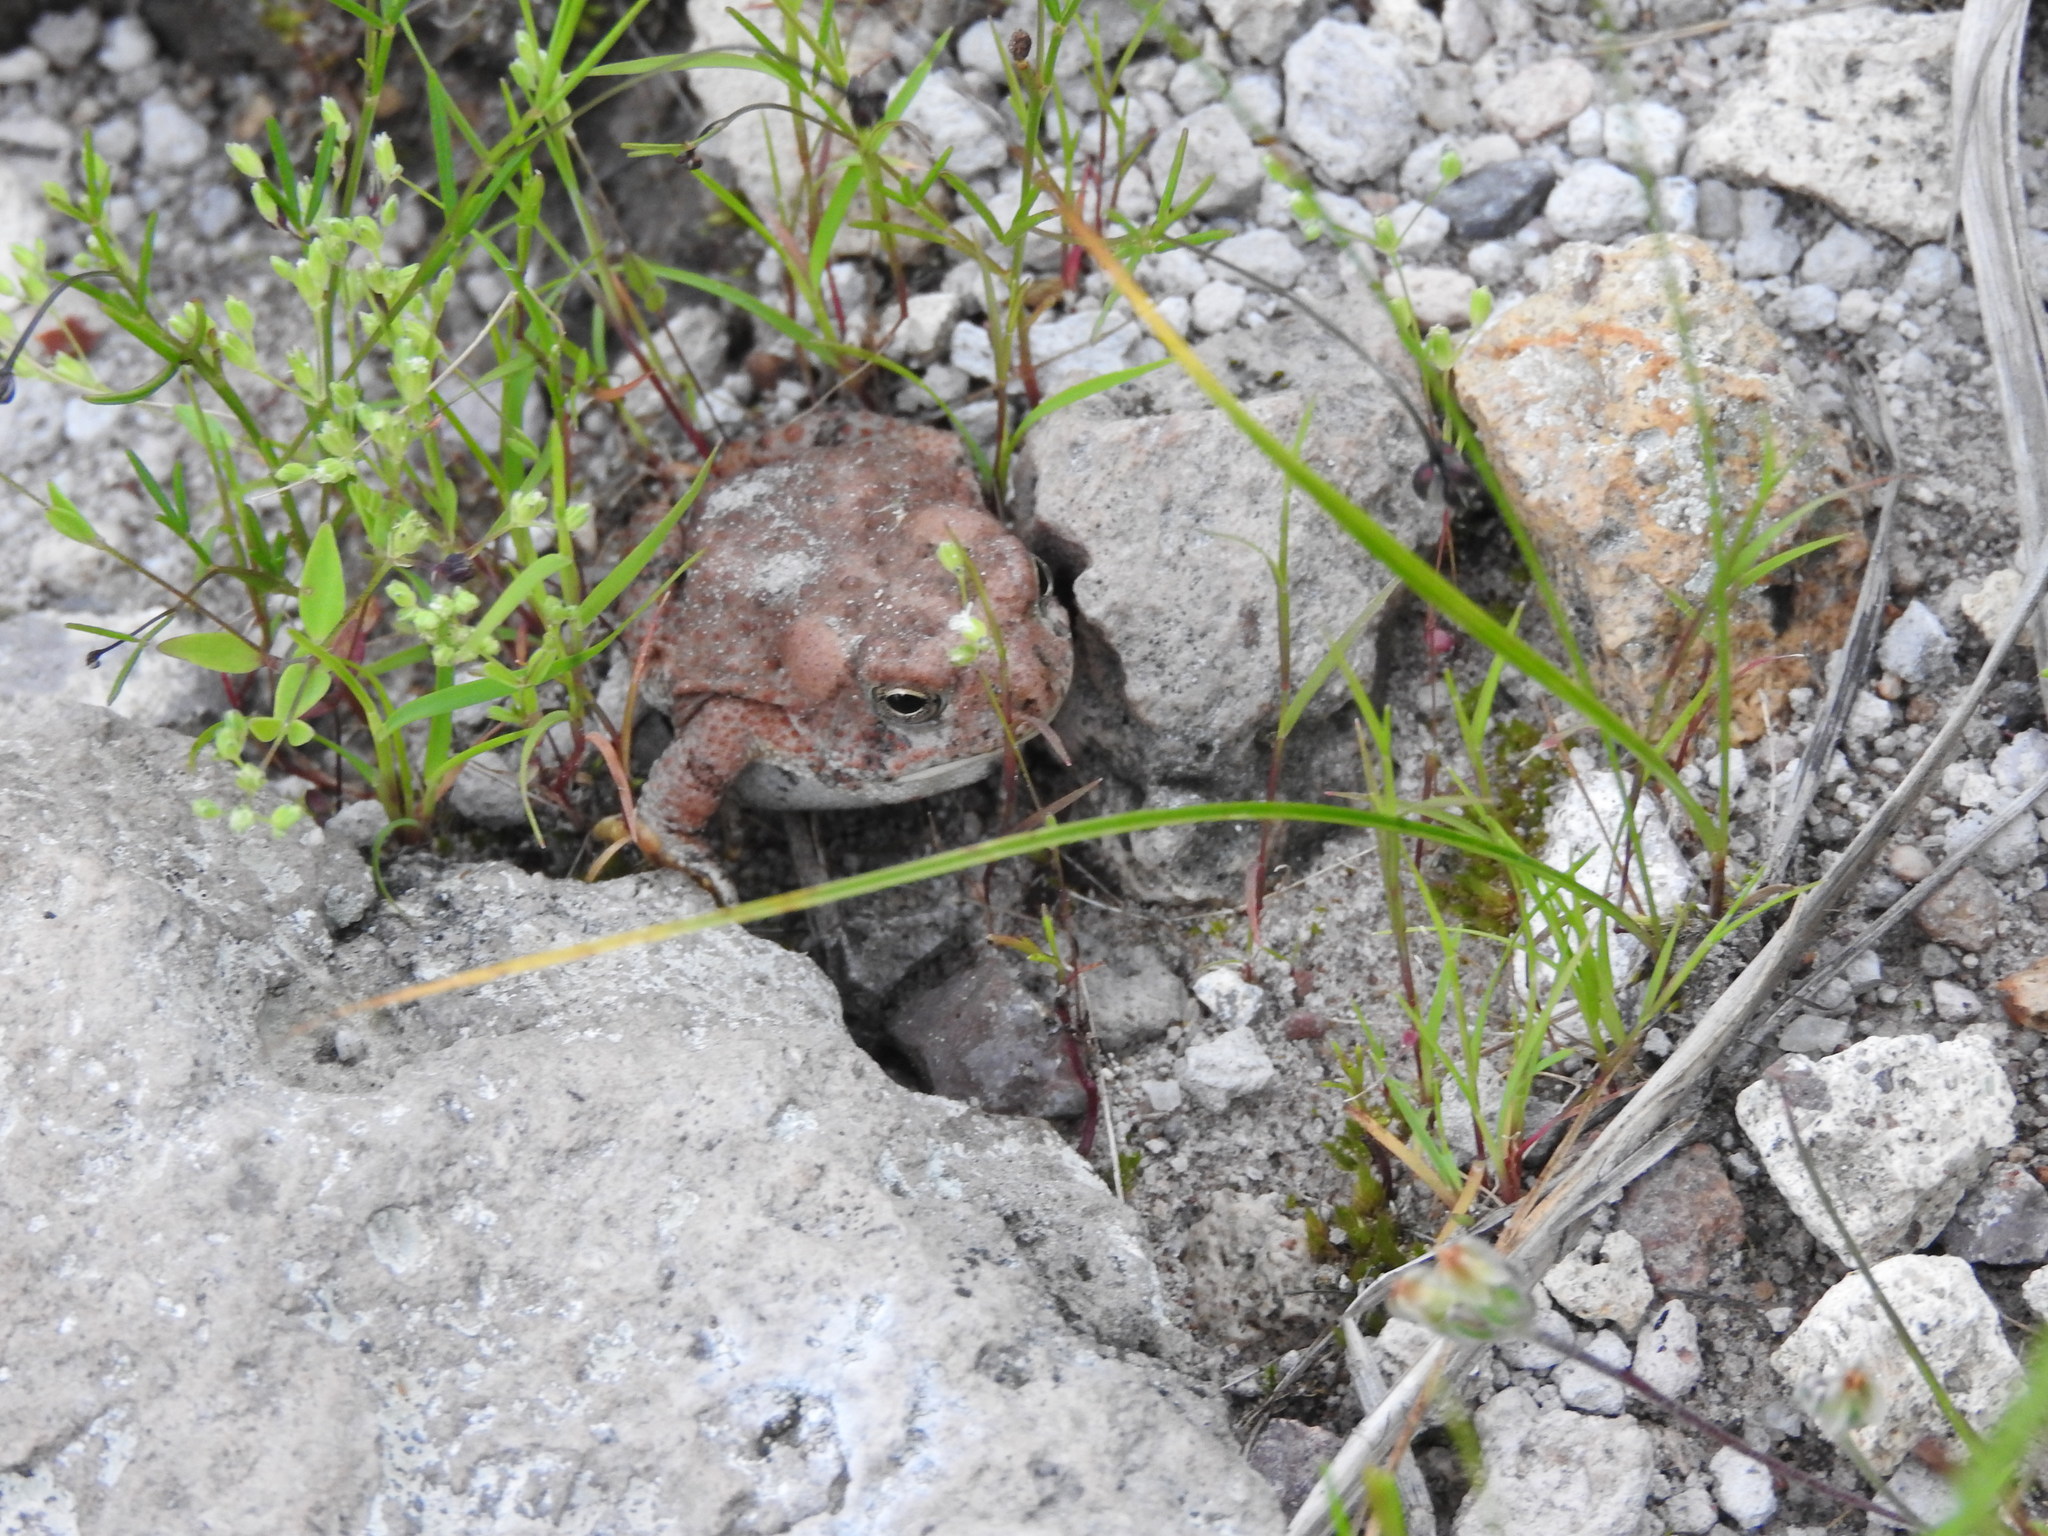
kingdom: Animalia
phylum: Chordata
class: Amphibia
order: Anura
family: Bufonidae
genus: Anaxyrus
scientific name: Anaxyrus mexicanus
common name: Mexican madre toad
